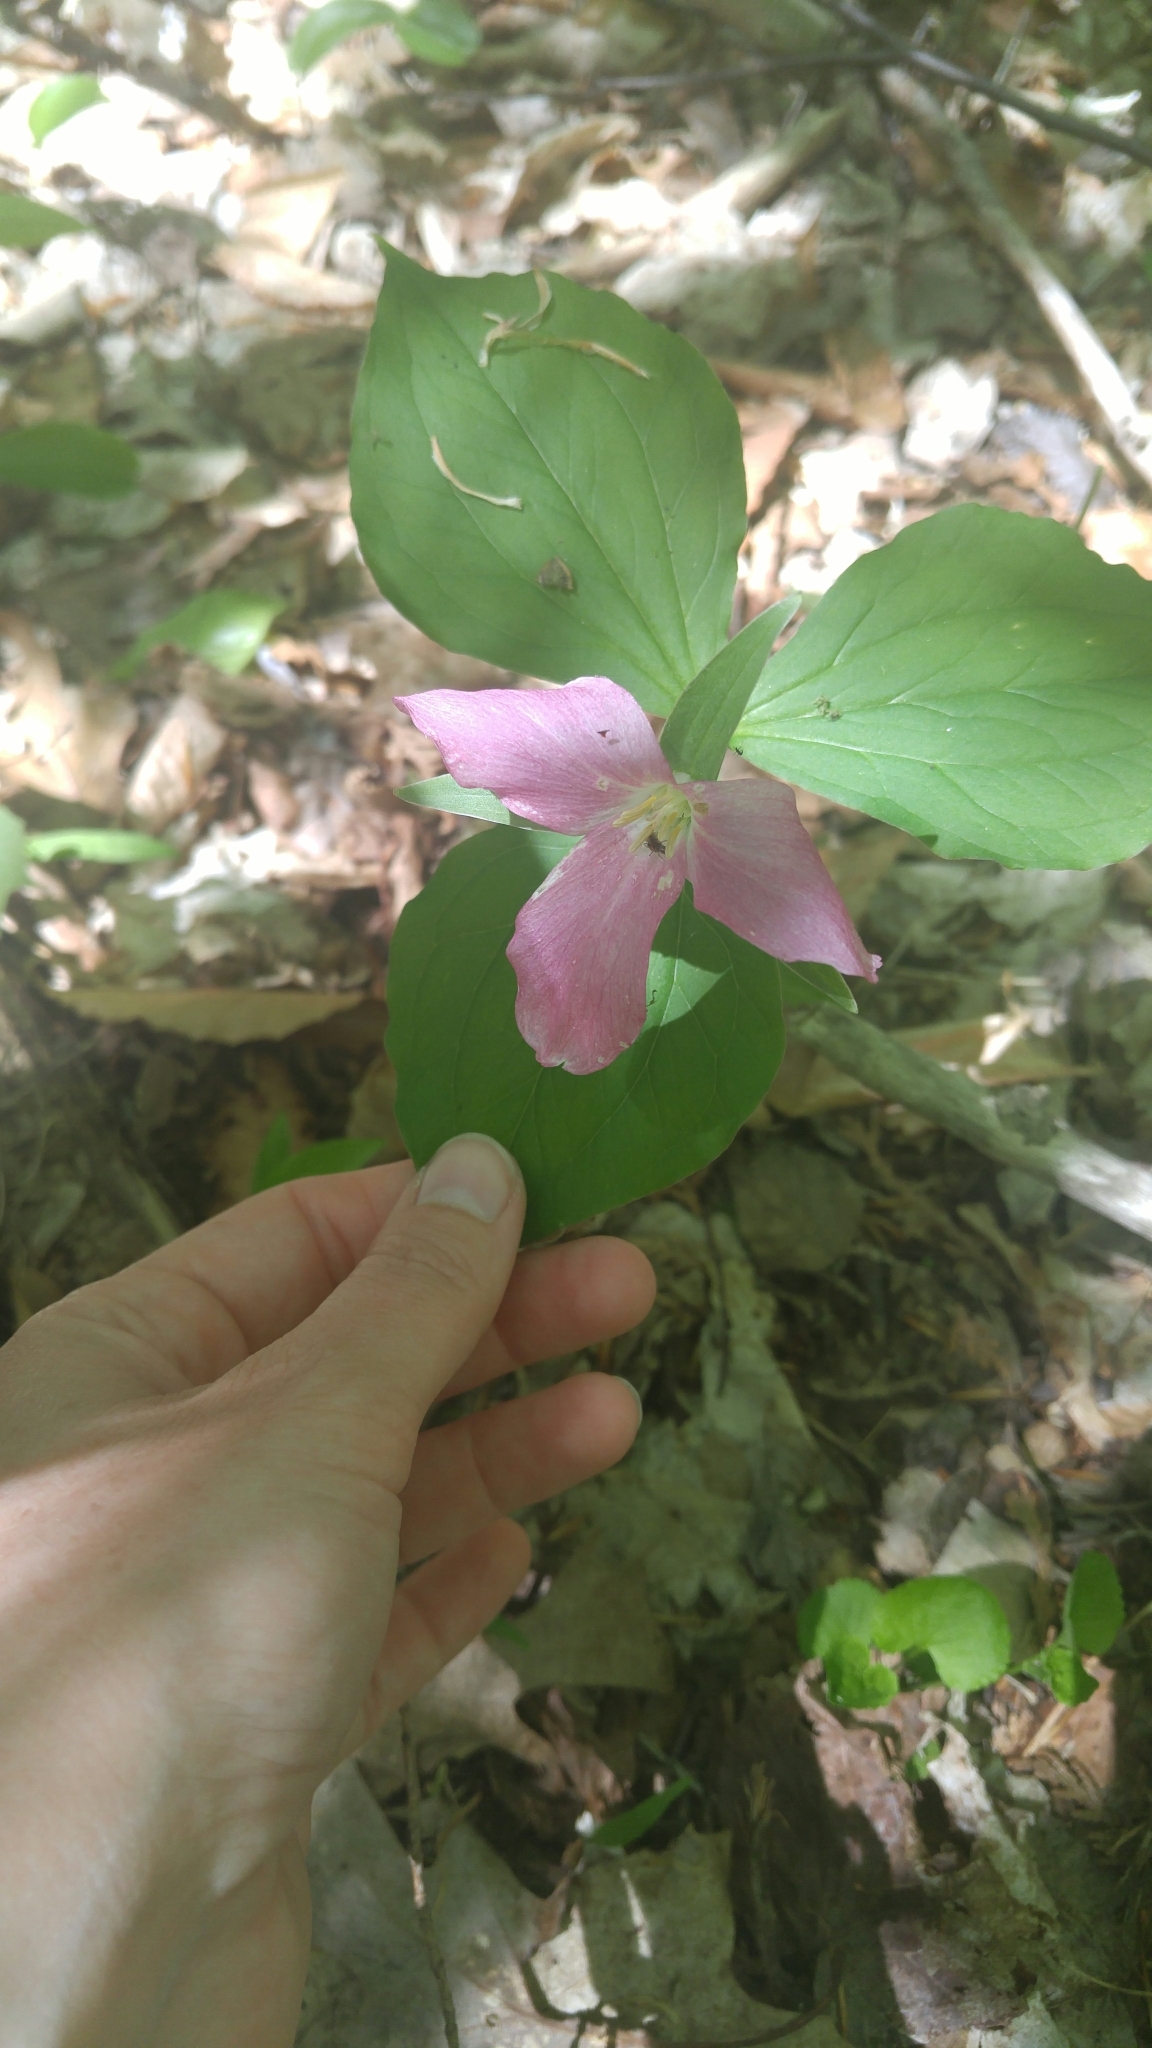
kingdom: Plantae
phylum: Tracheophyta
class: Liliopsida
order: Liliales
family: Melanthiaceae
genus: Trillium
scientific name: Trillium grandiflorum
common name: Great white trillium
